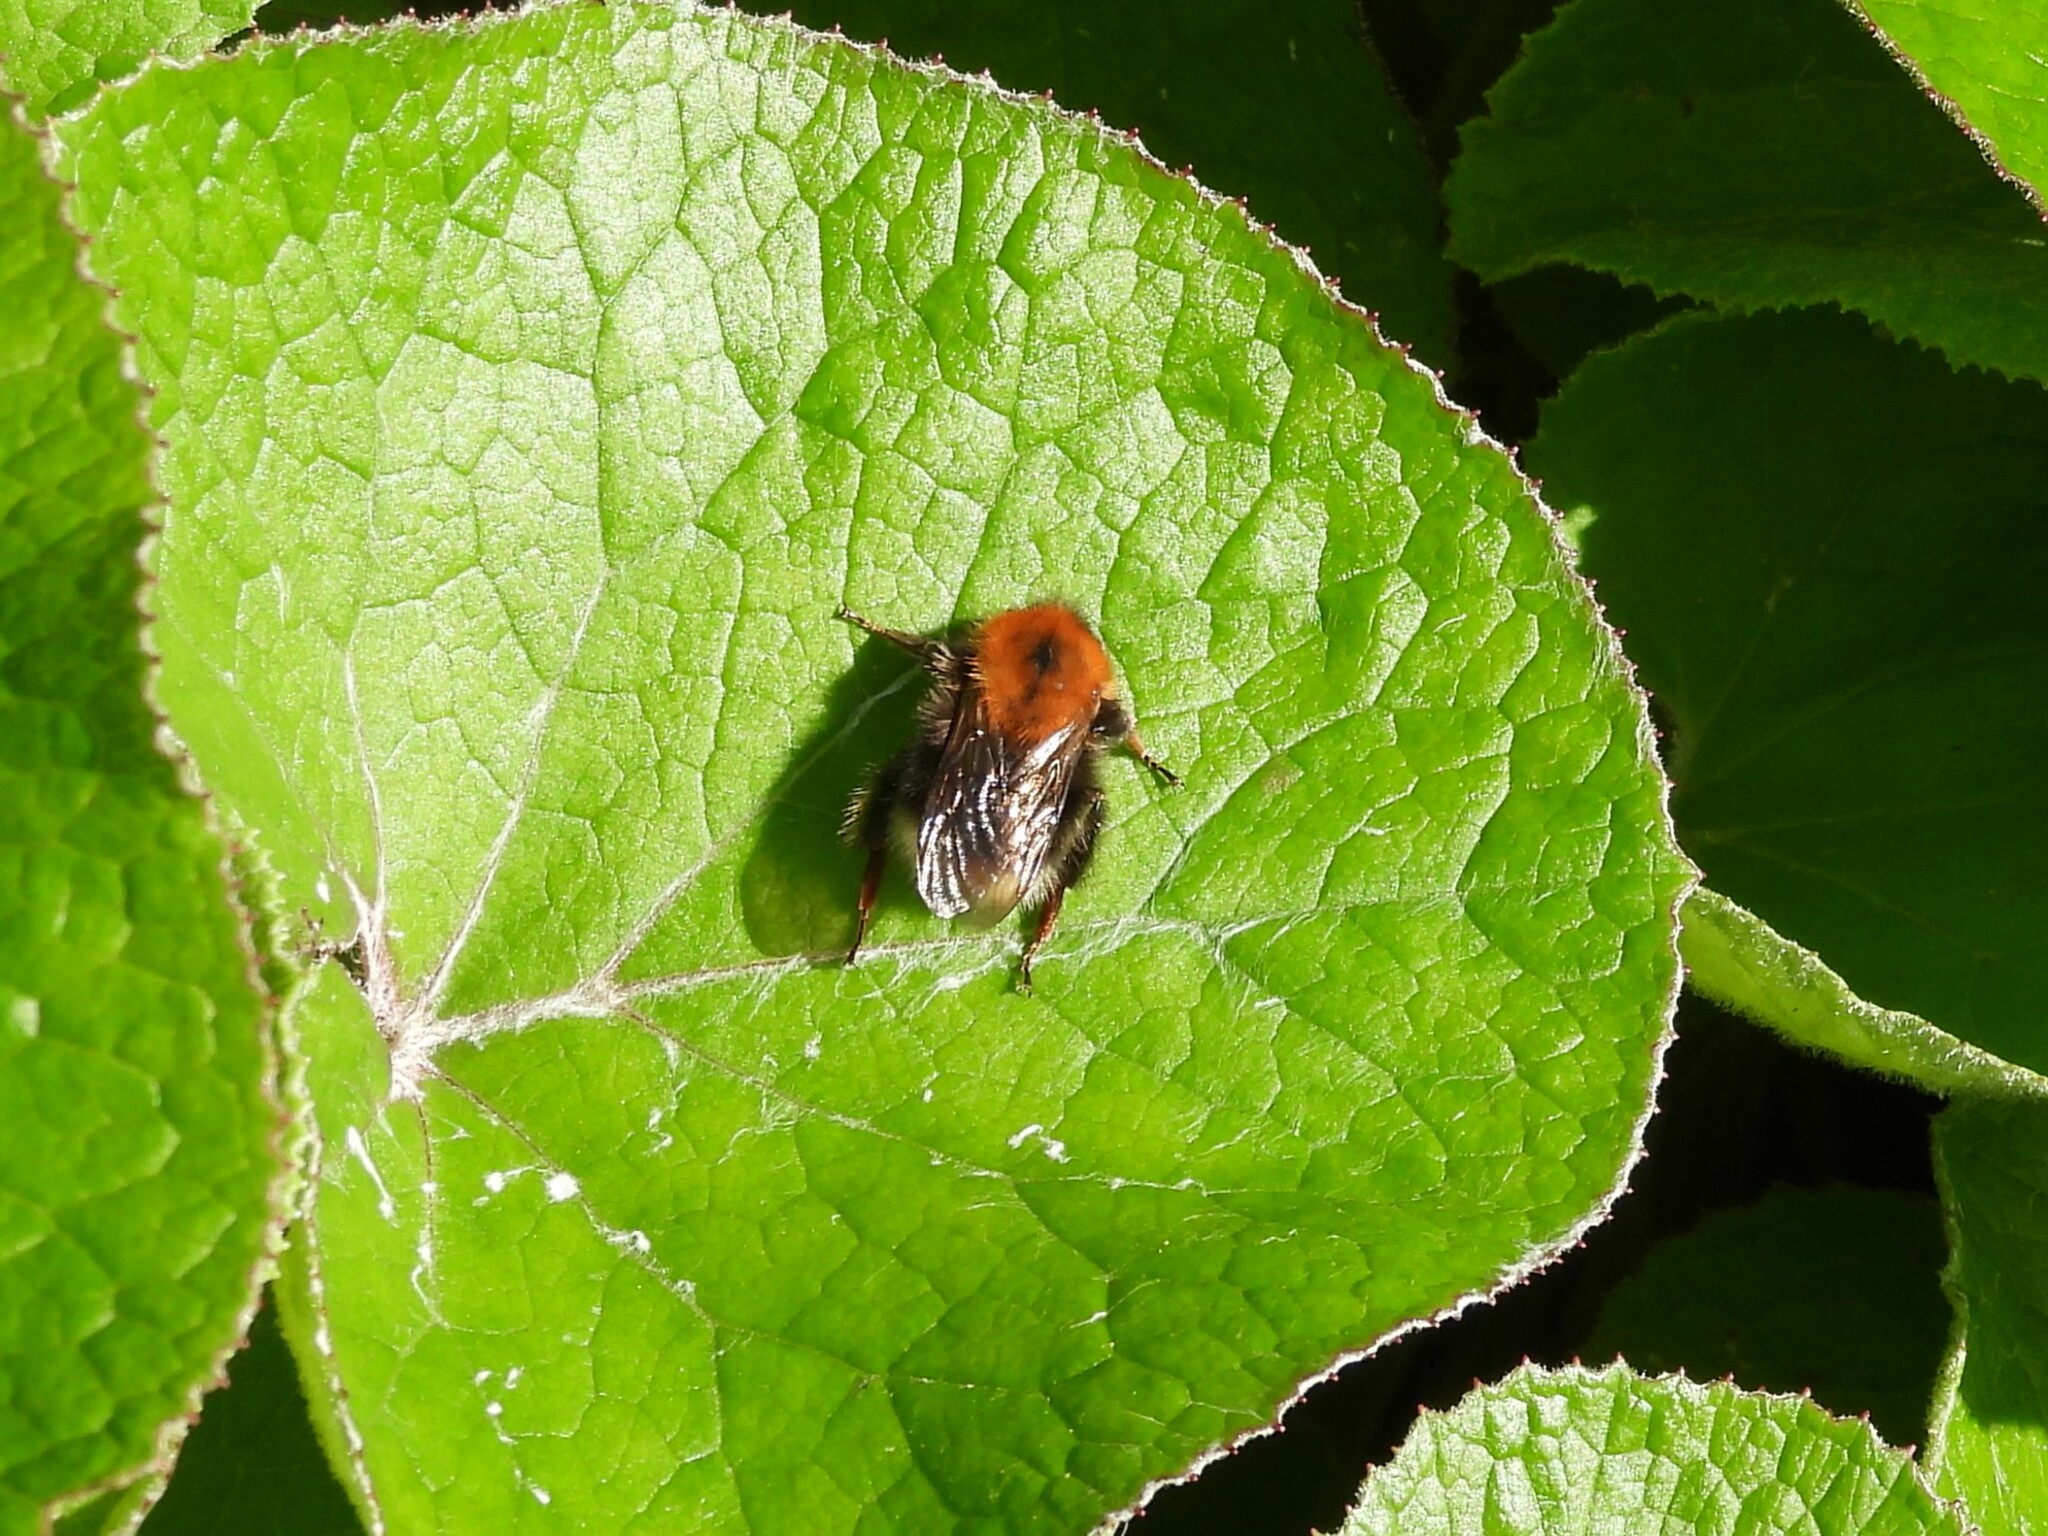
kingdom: Animalia
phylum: Arthropoda
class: Insecta
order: Hymenoptera
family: Apidae
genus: Bombus
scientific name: Bombus hypnorum
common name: New garden bumblebee
